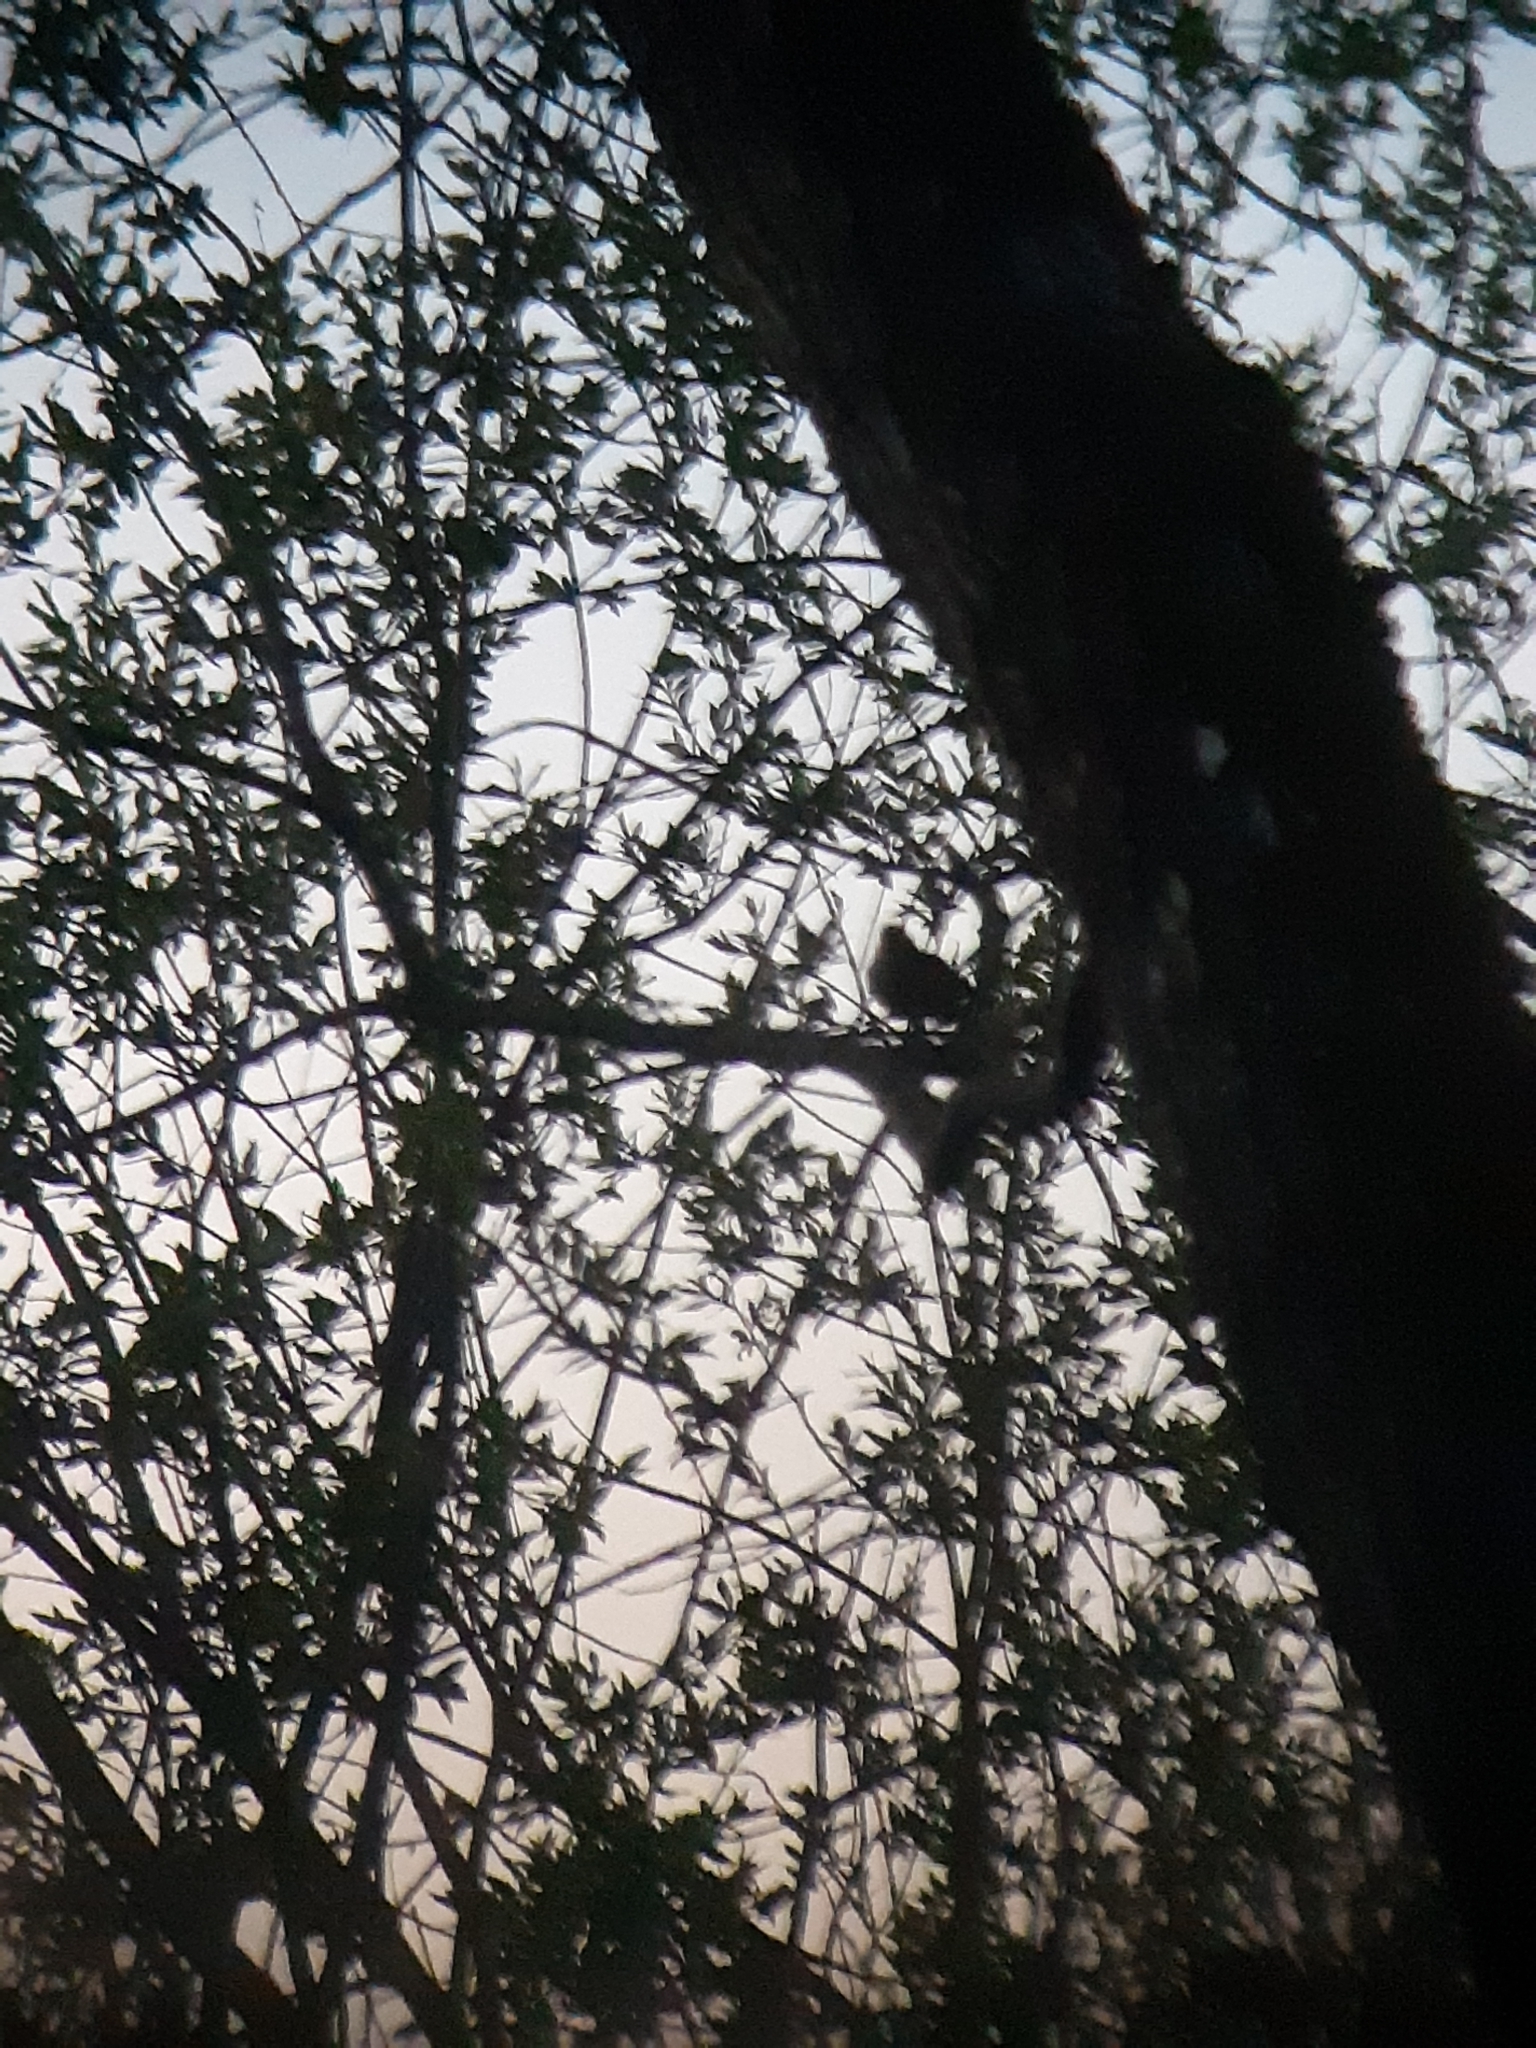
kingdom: Animalia
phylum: Chordata
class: Aves
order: Passeriformes
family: Muscicapidae
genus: Luscinia
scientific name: Luscinia luscinia
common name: Thrush nightingale
